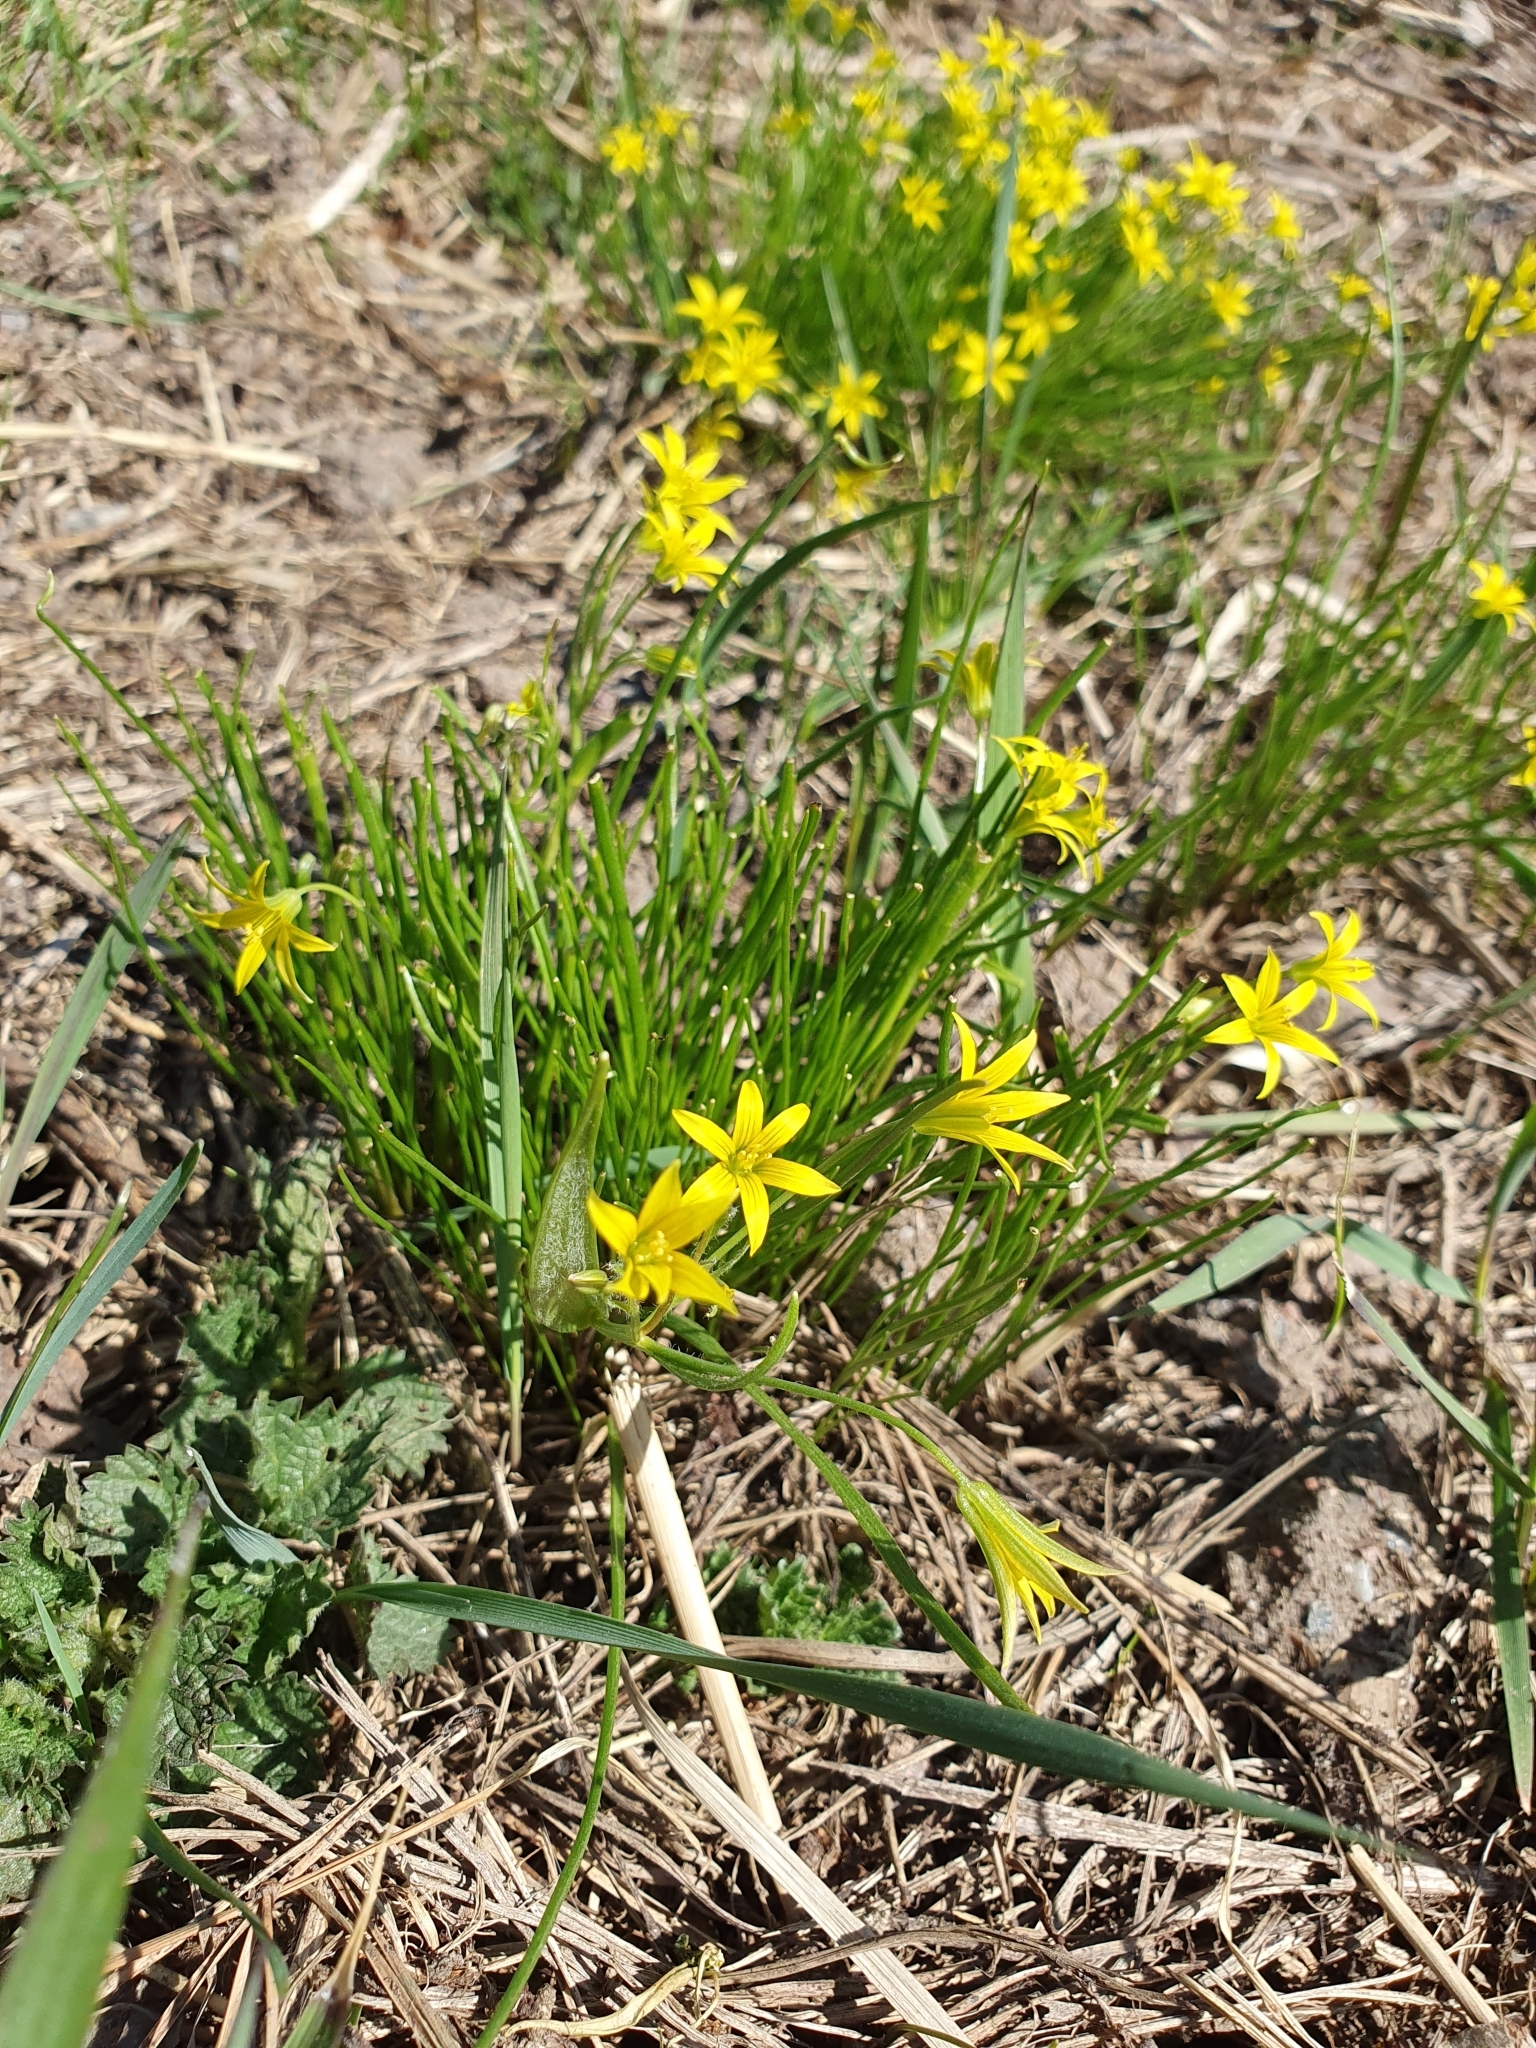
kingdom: Plantae
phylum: Tracheophyta
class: Liliopsida
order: Liliales
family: Liliaceae
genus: Gagea
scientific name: Gagea minima
